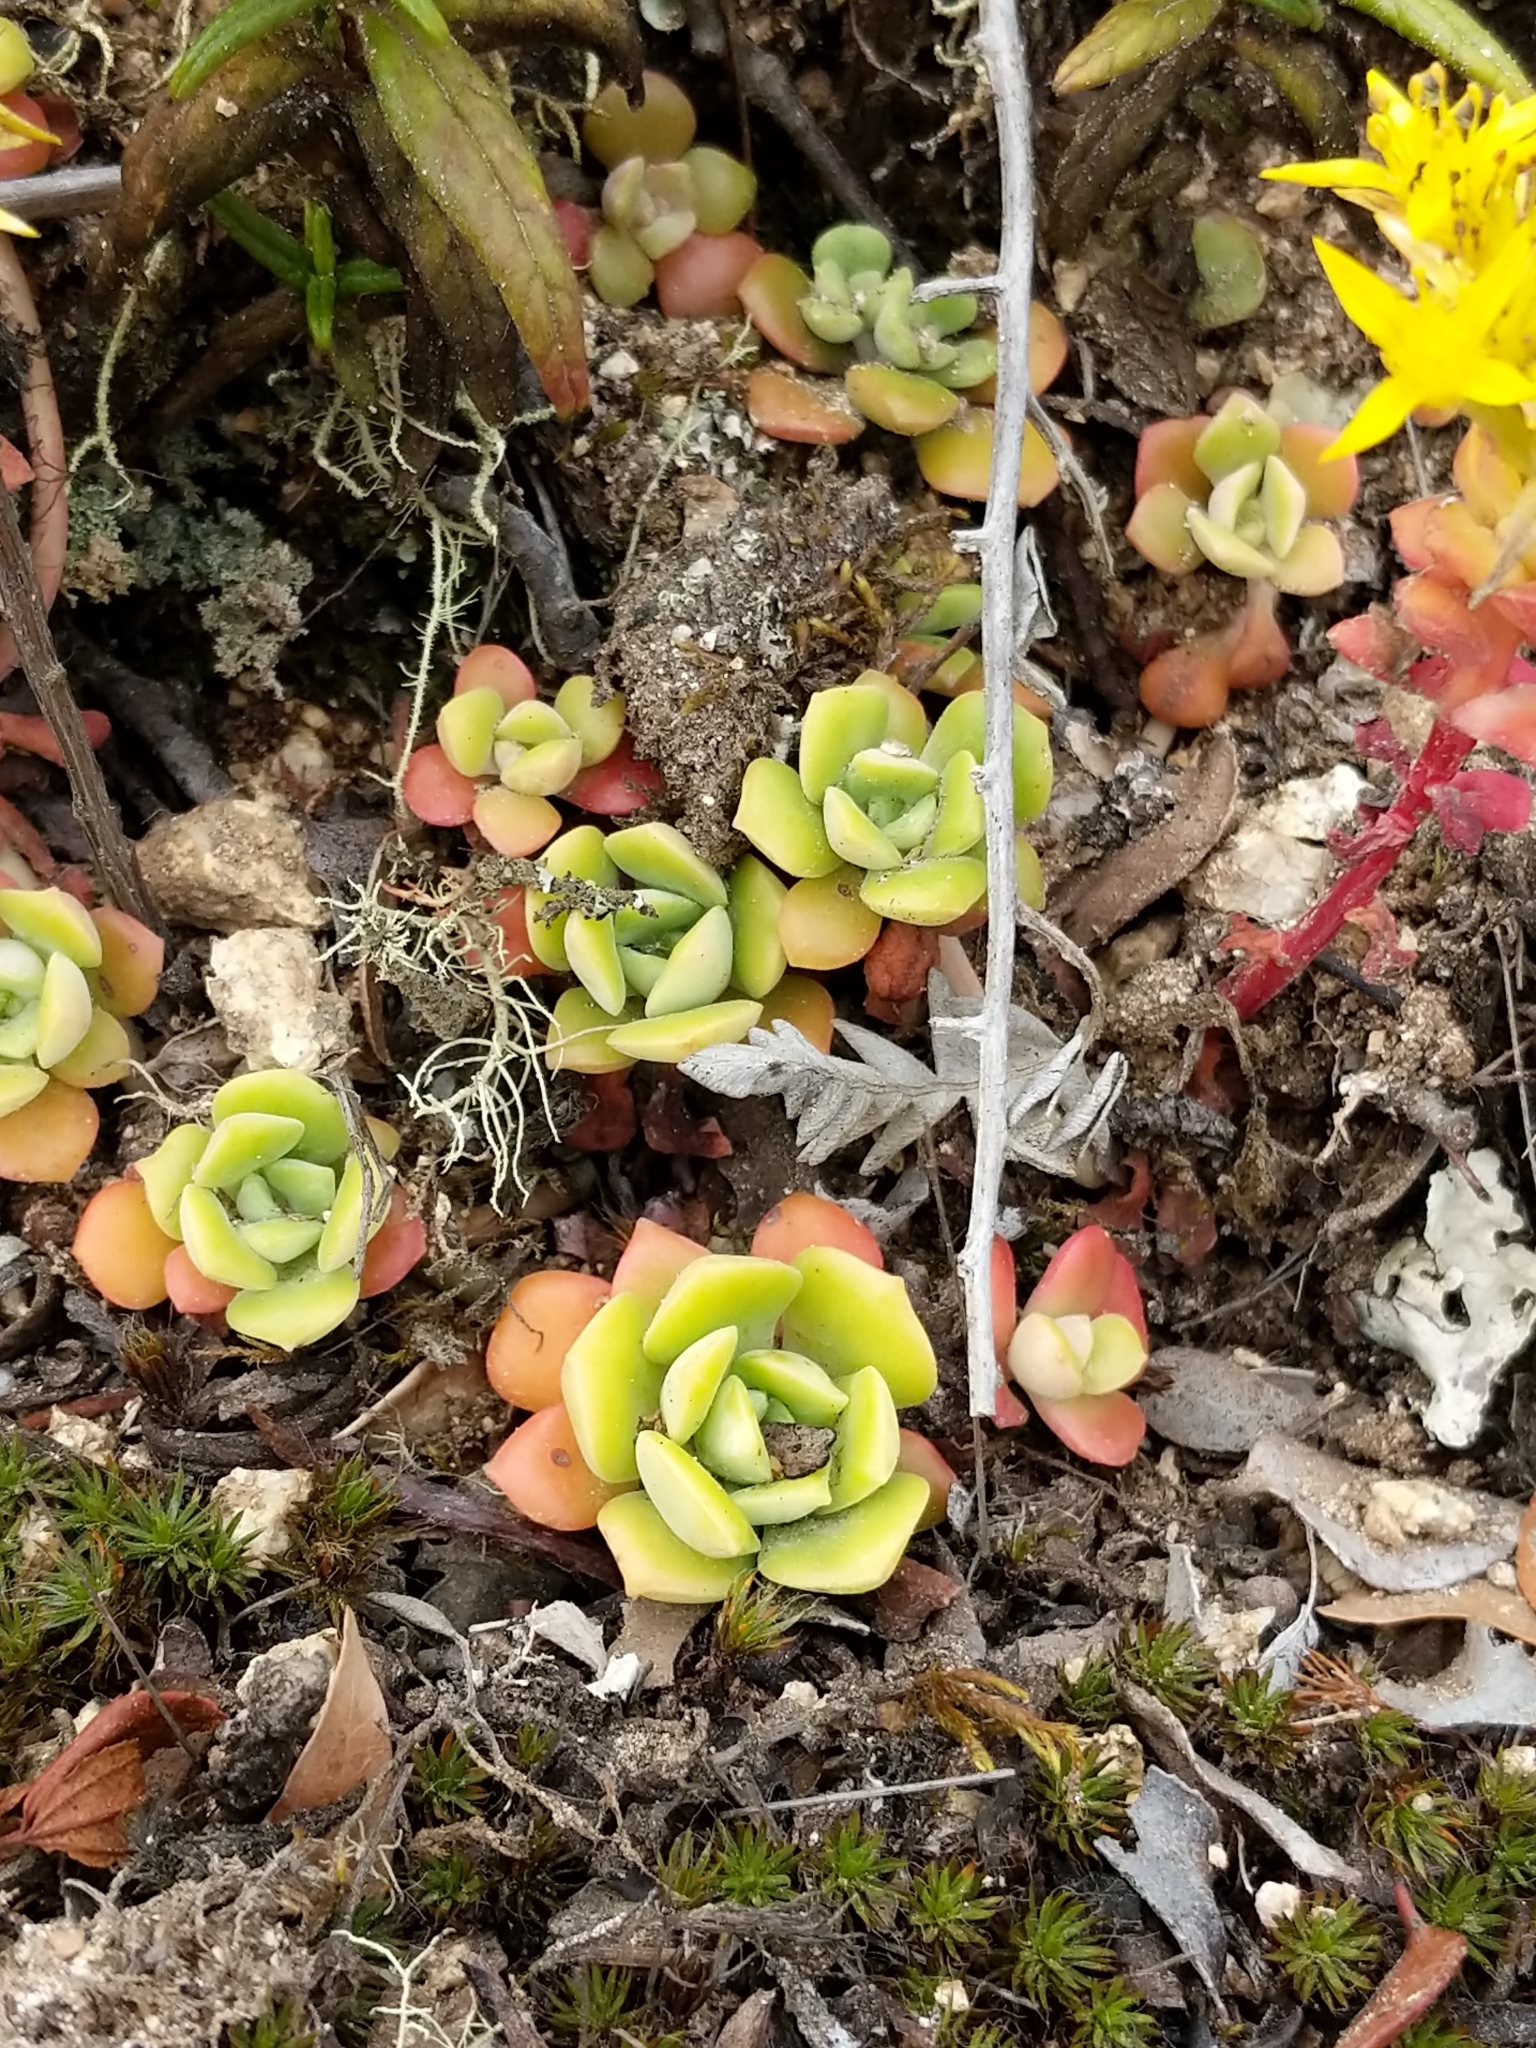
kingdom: Plantae
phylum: Tracheophyta
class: Magnoliopsida
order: Saxifragales
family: Crassulaceae
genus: Sedum
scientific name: Sedum spathulifolium
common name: Colorado stonecrop
